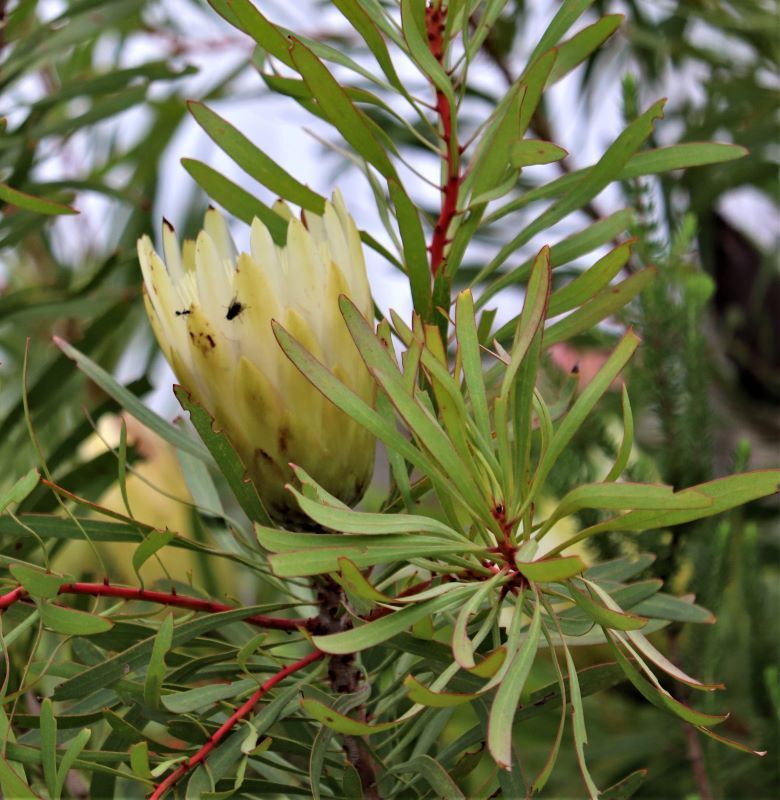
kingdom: Plantae
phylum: Tracheophyta
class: Magnoliopsida
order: Proteales
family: Proteaceae
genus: Protea
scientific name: Protea repens
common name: Sugarbush
